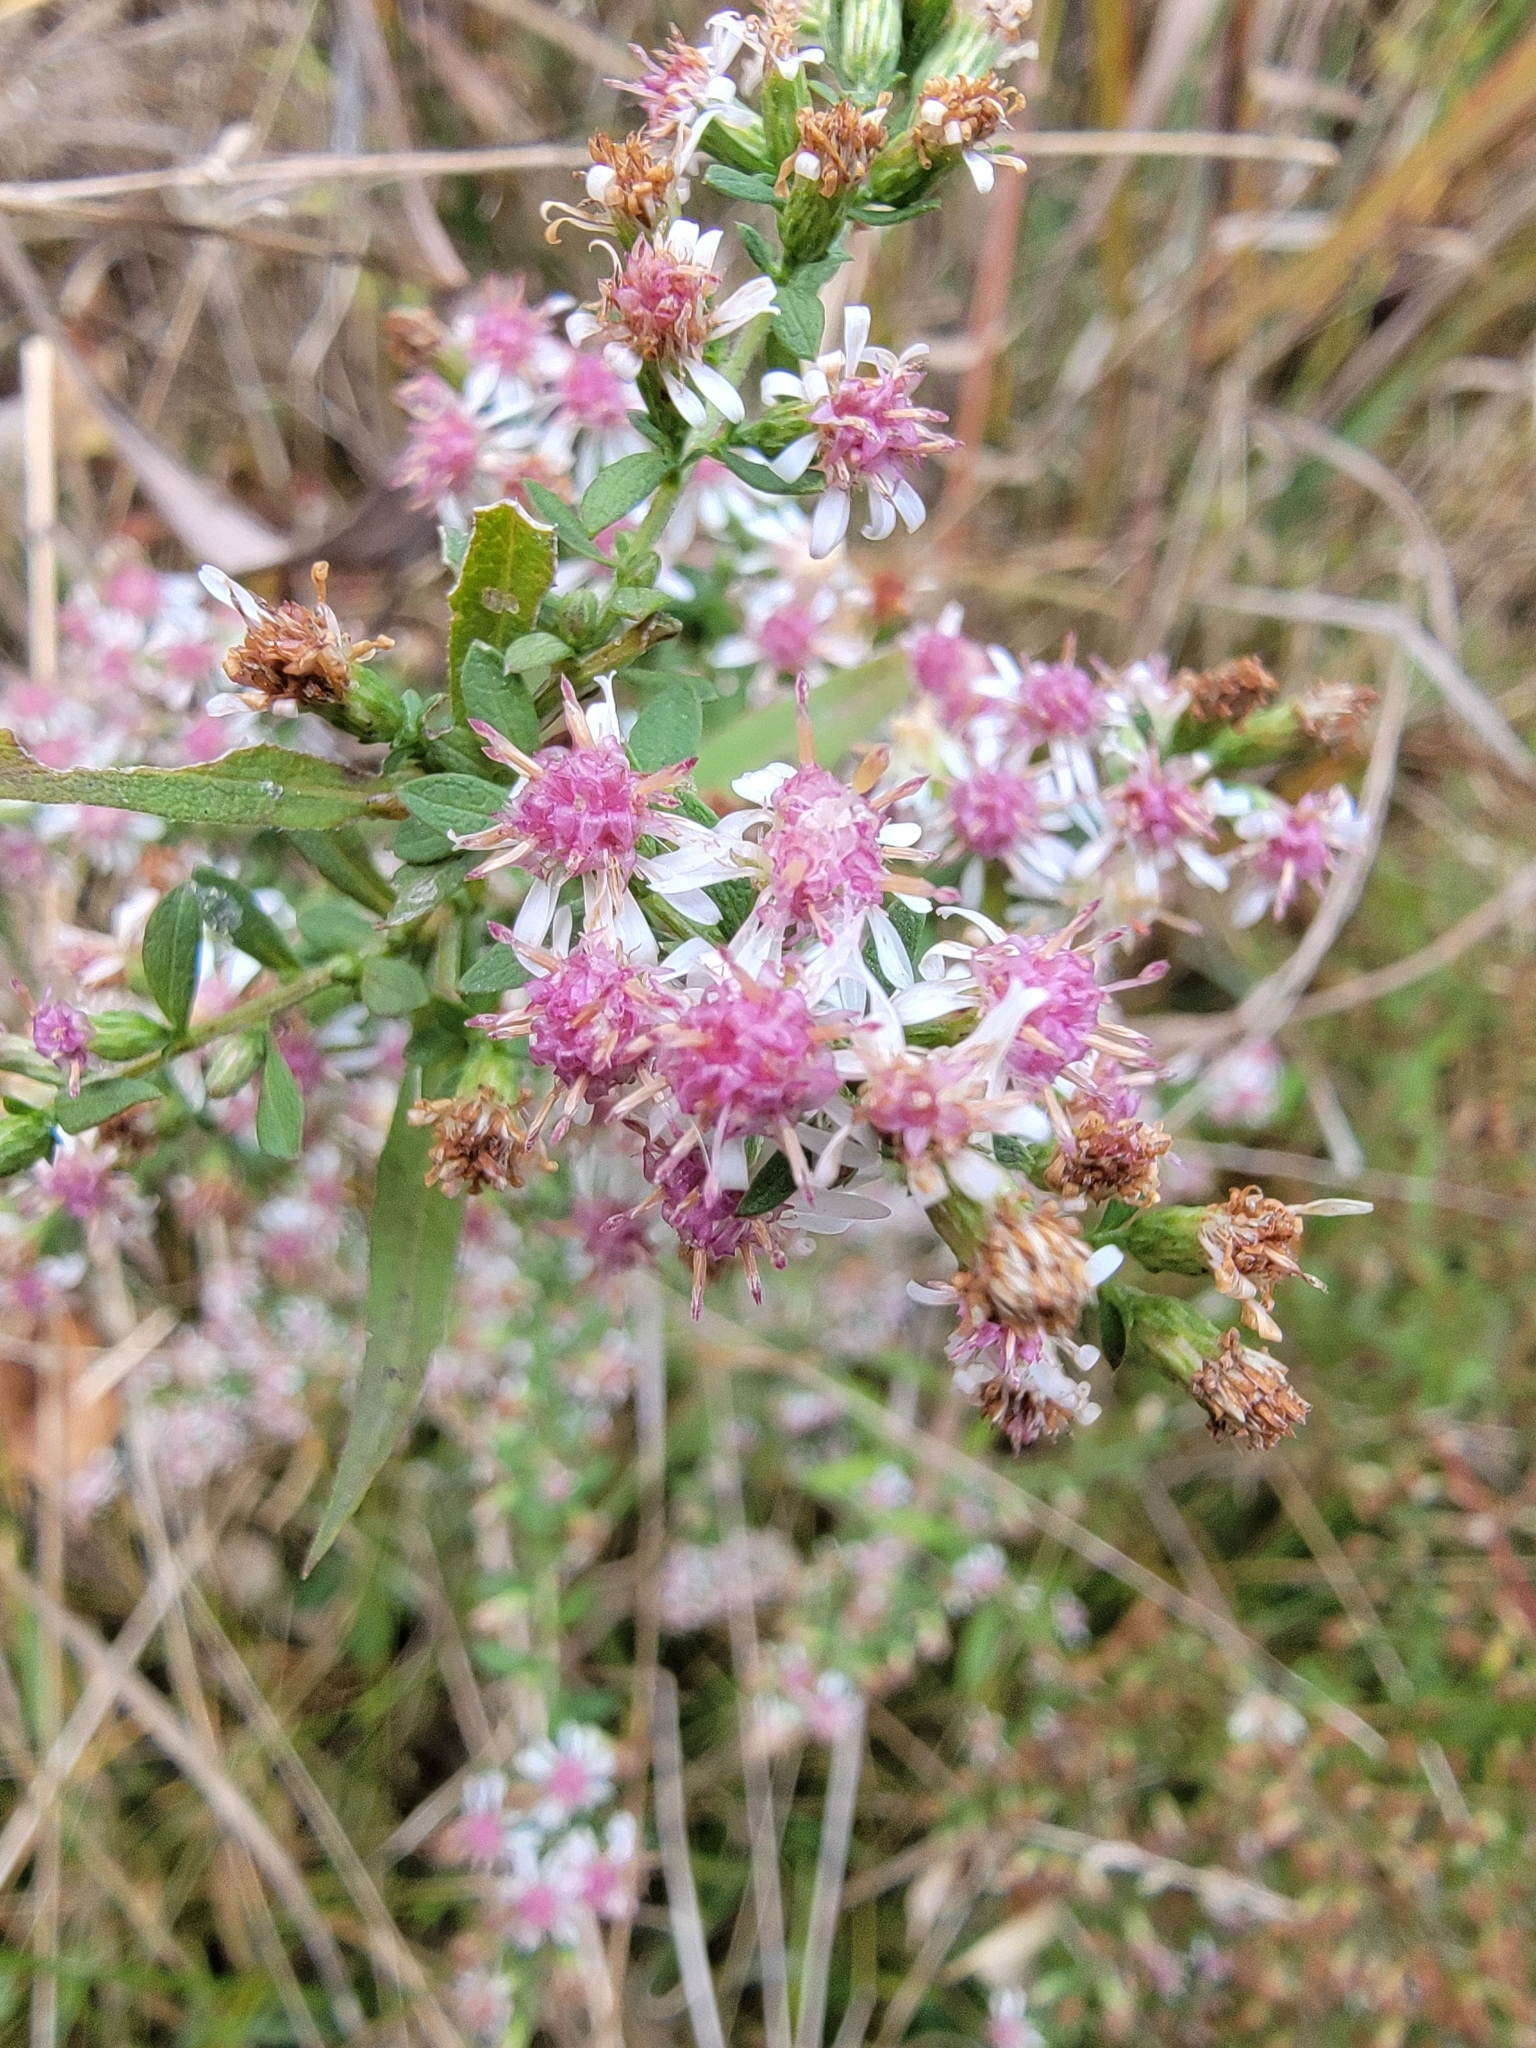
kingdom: Plantae
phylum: Tracheophyta
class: Magnoliopsida
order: Asterales
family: Asteraceae
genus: Symphyotrichum
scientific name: Symphyotrichum lateriflorum
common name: Calico aster
